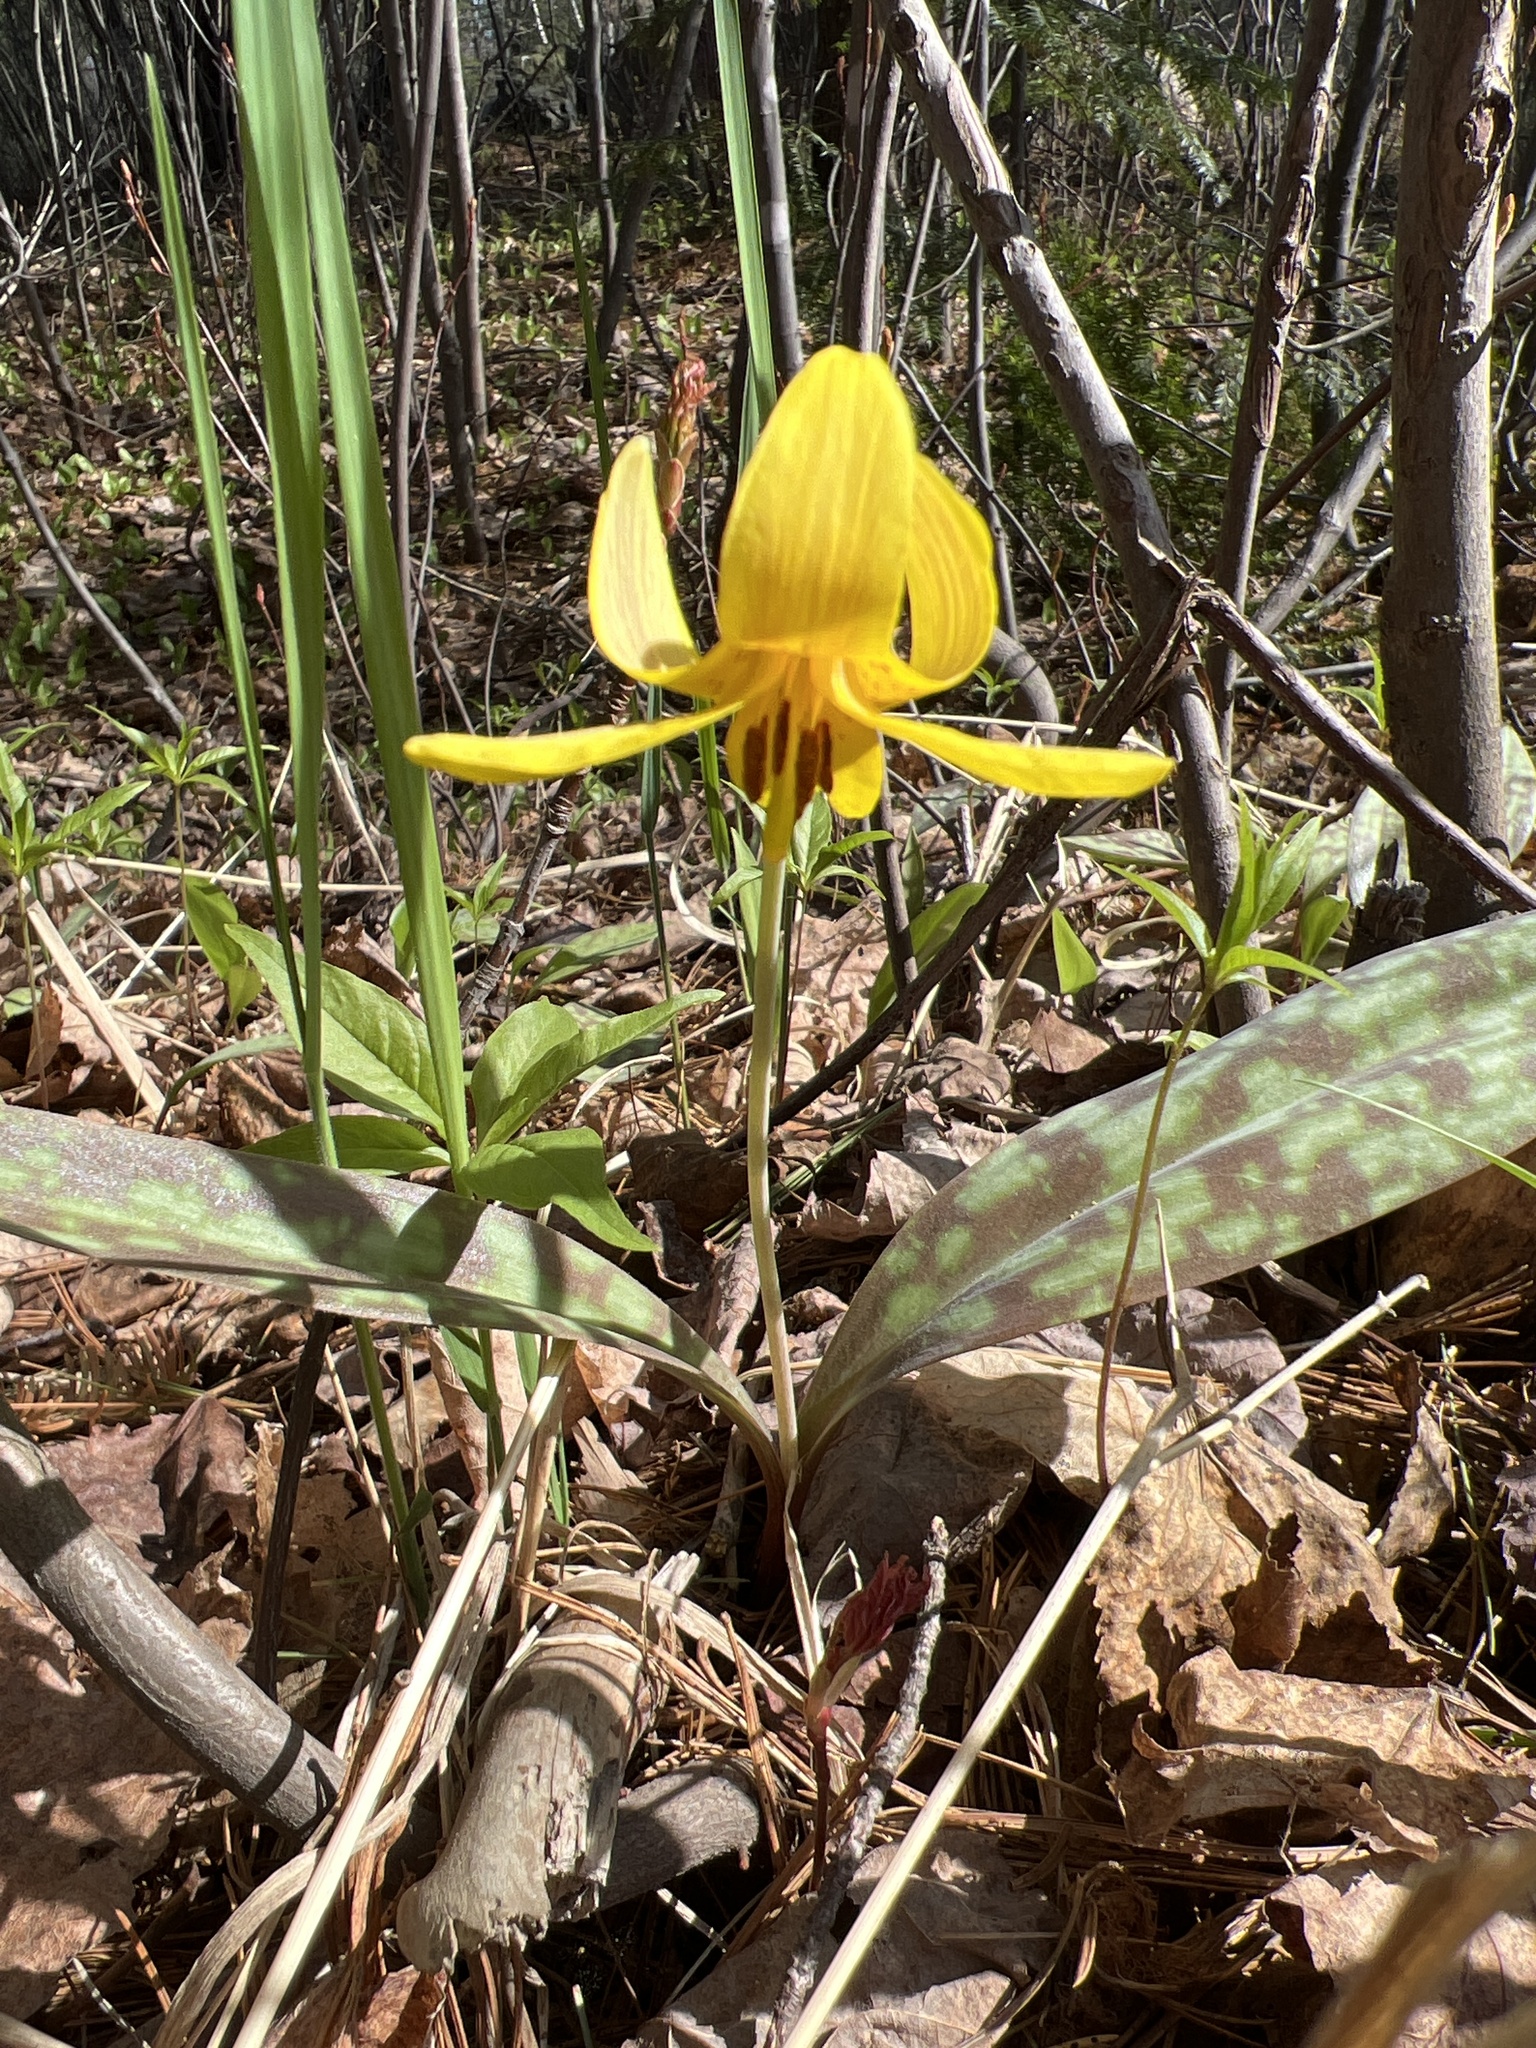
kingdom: Plantae
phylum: Tracheophyta
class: Liliopsida
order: Liliales
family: Liliaceae
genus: Erythronium
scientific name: Erythronium americanum
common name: Yellow adder's-tongue
